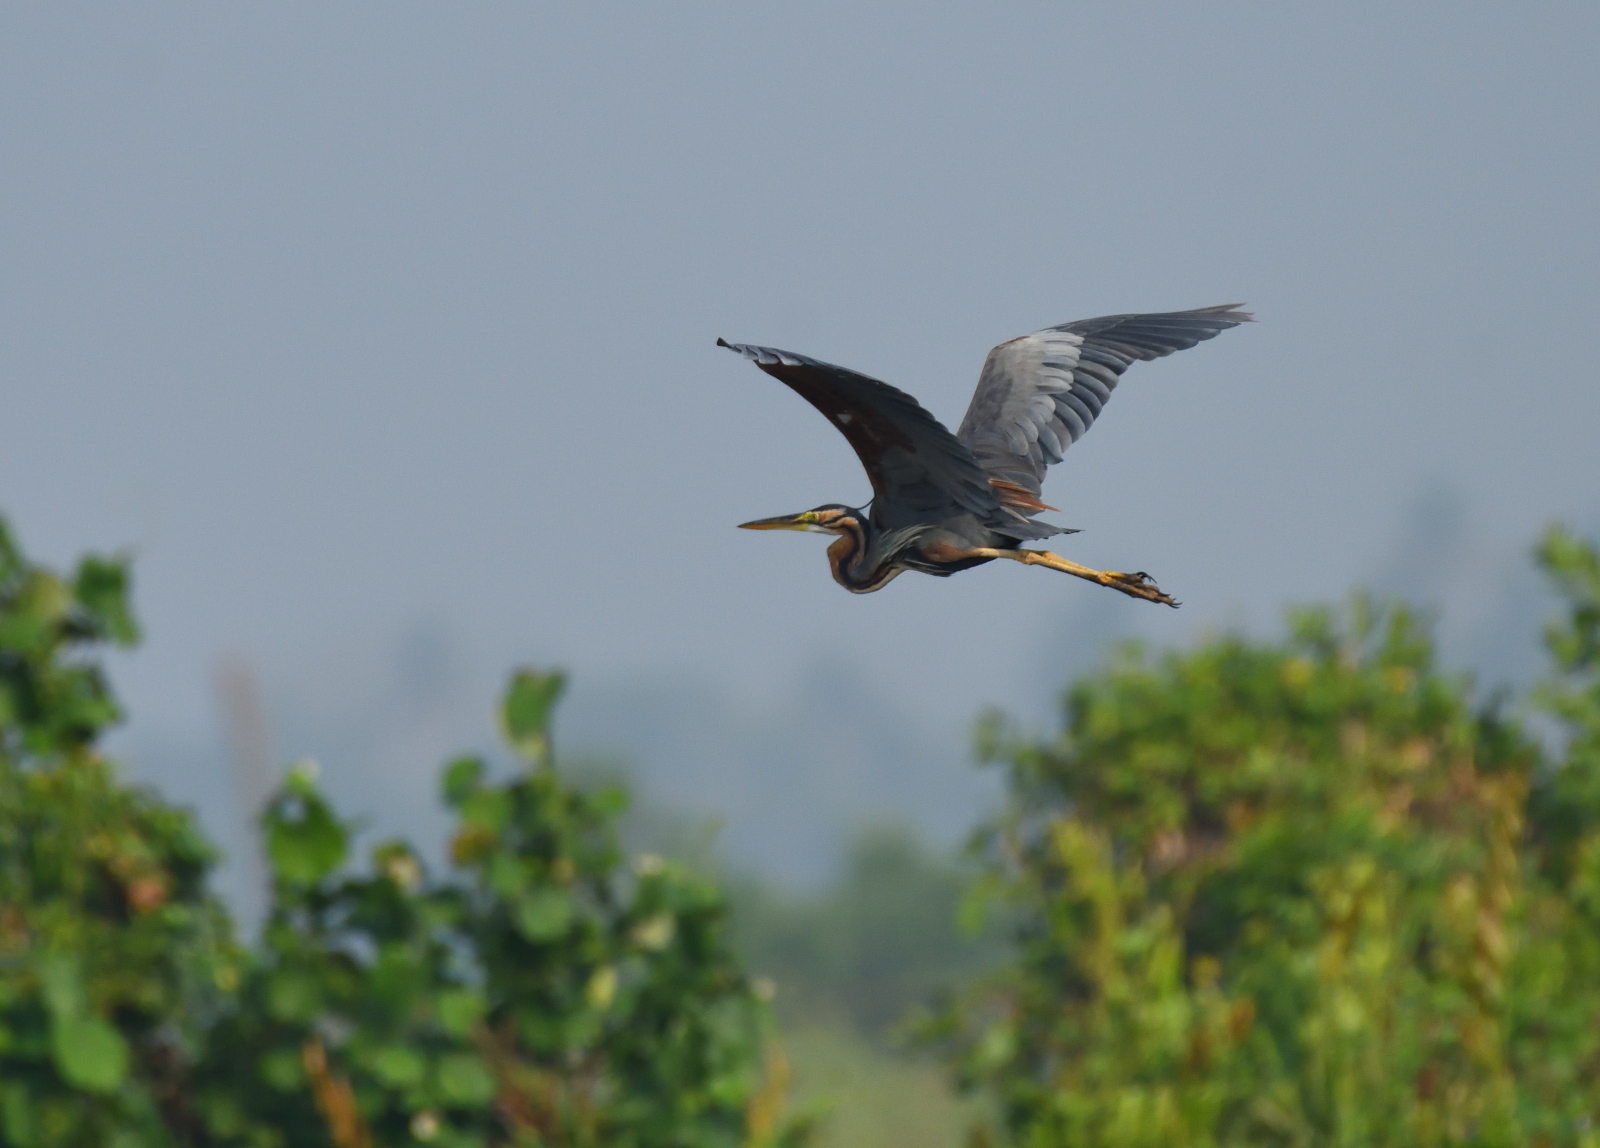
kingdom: Animalia
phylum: Chordata
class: Aves
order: Pelecaniformes
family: Ardeidae
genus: Ardea
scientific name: Ardea purpurea
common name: Purple heron
